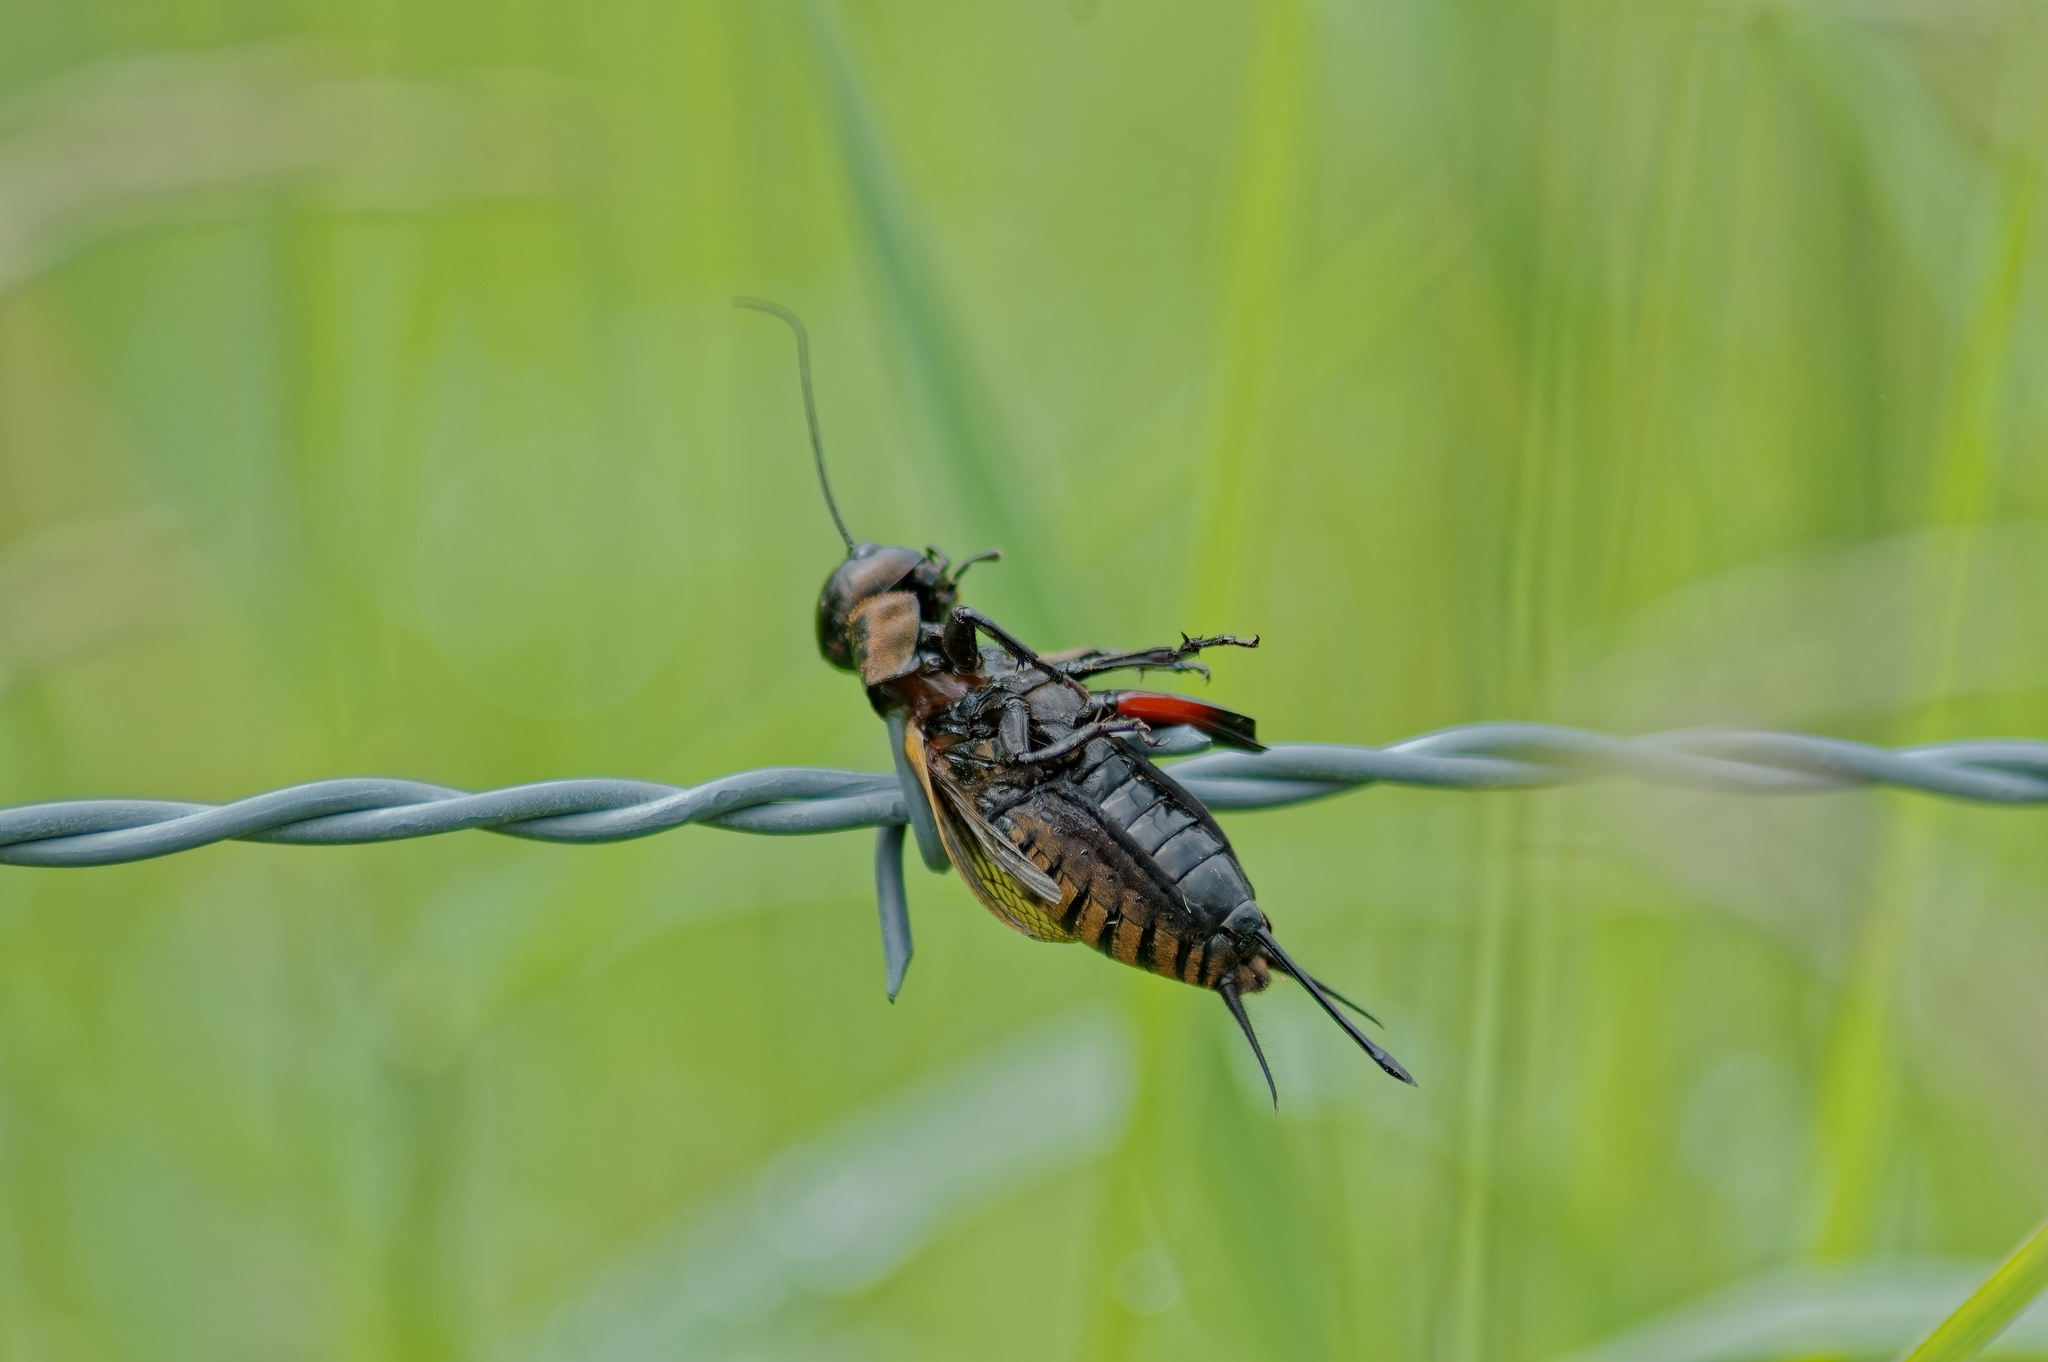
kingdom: Animalia
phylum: Arthropoda
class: Insecta
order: Orthoptera
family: Gryllidae
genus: Gryllus
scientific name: Gryllus campestris
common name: Field cricket
